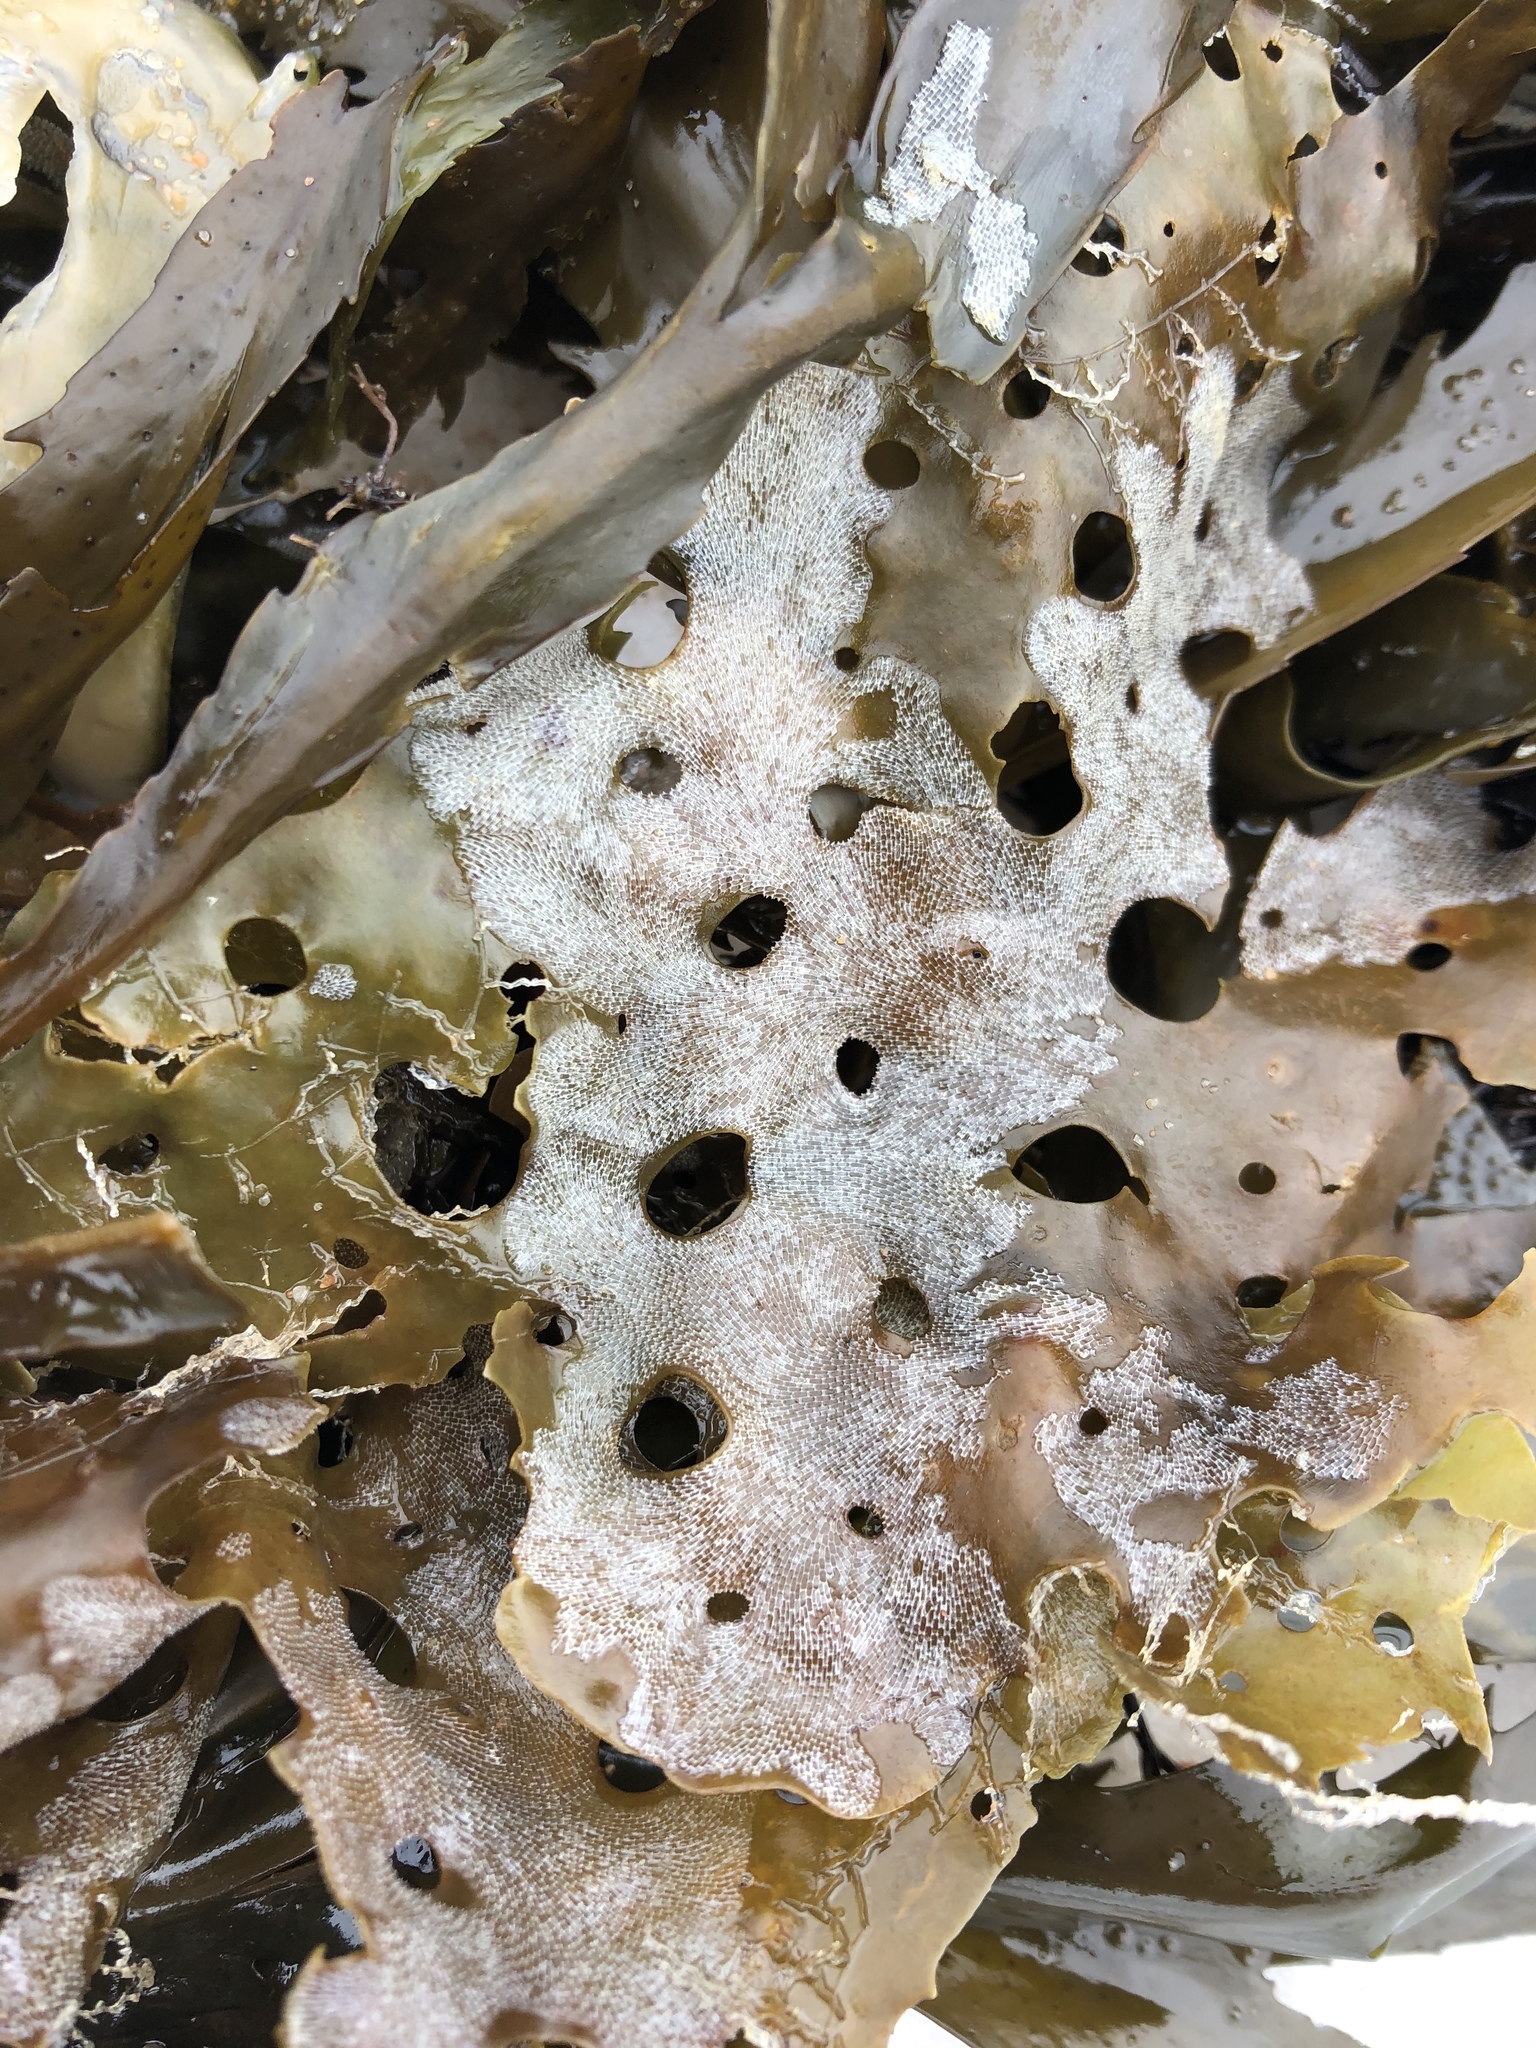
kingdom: Chromista
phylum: Ochrophyta
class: Phaeophyceae
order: Laminariales
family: Costariaceae
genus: Agarum
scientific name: Agarum clathratum
